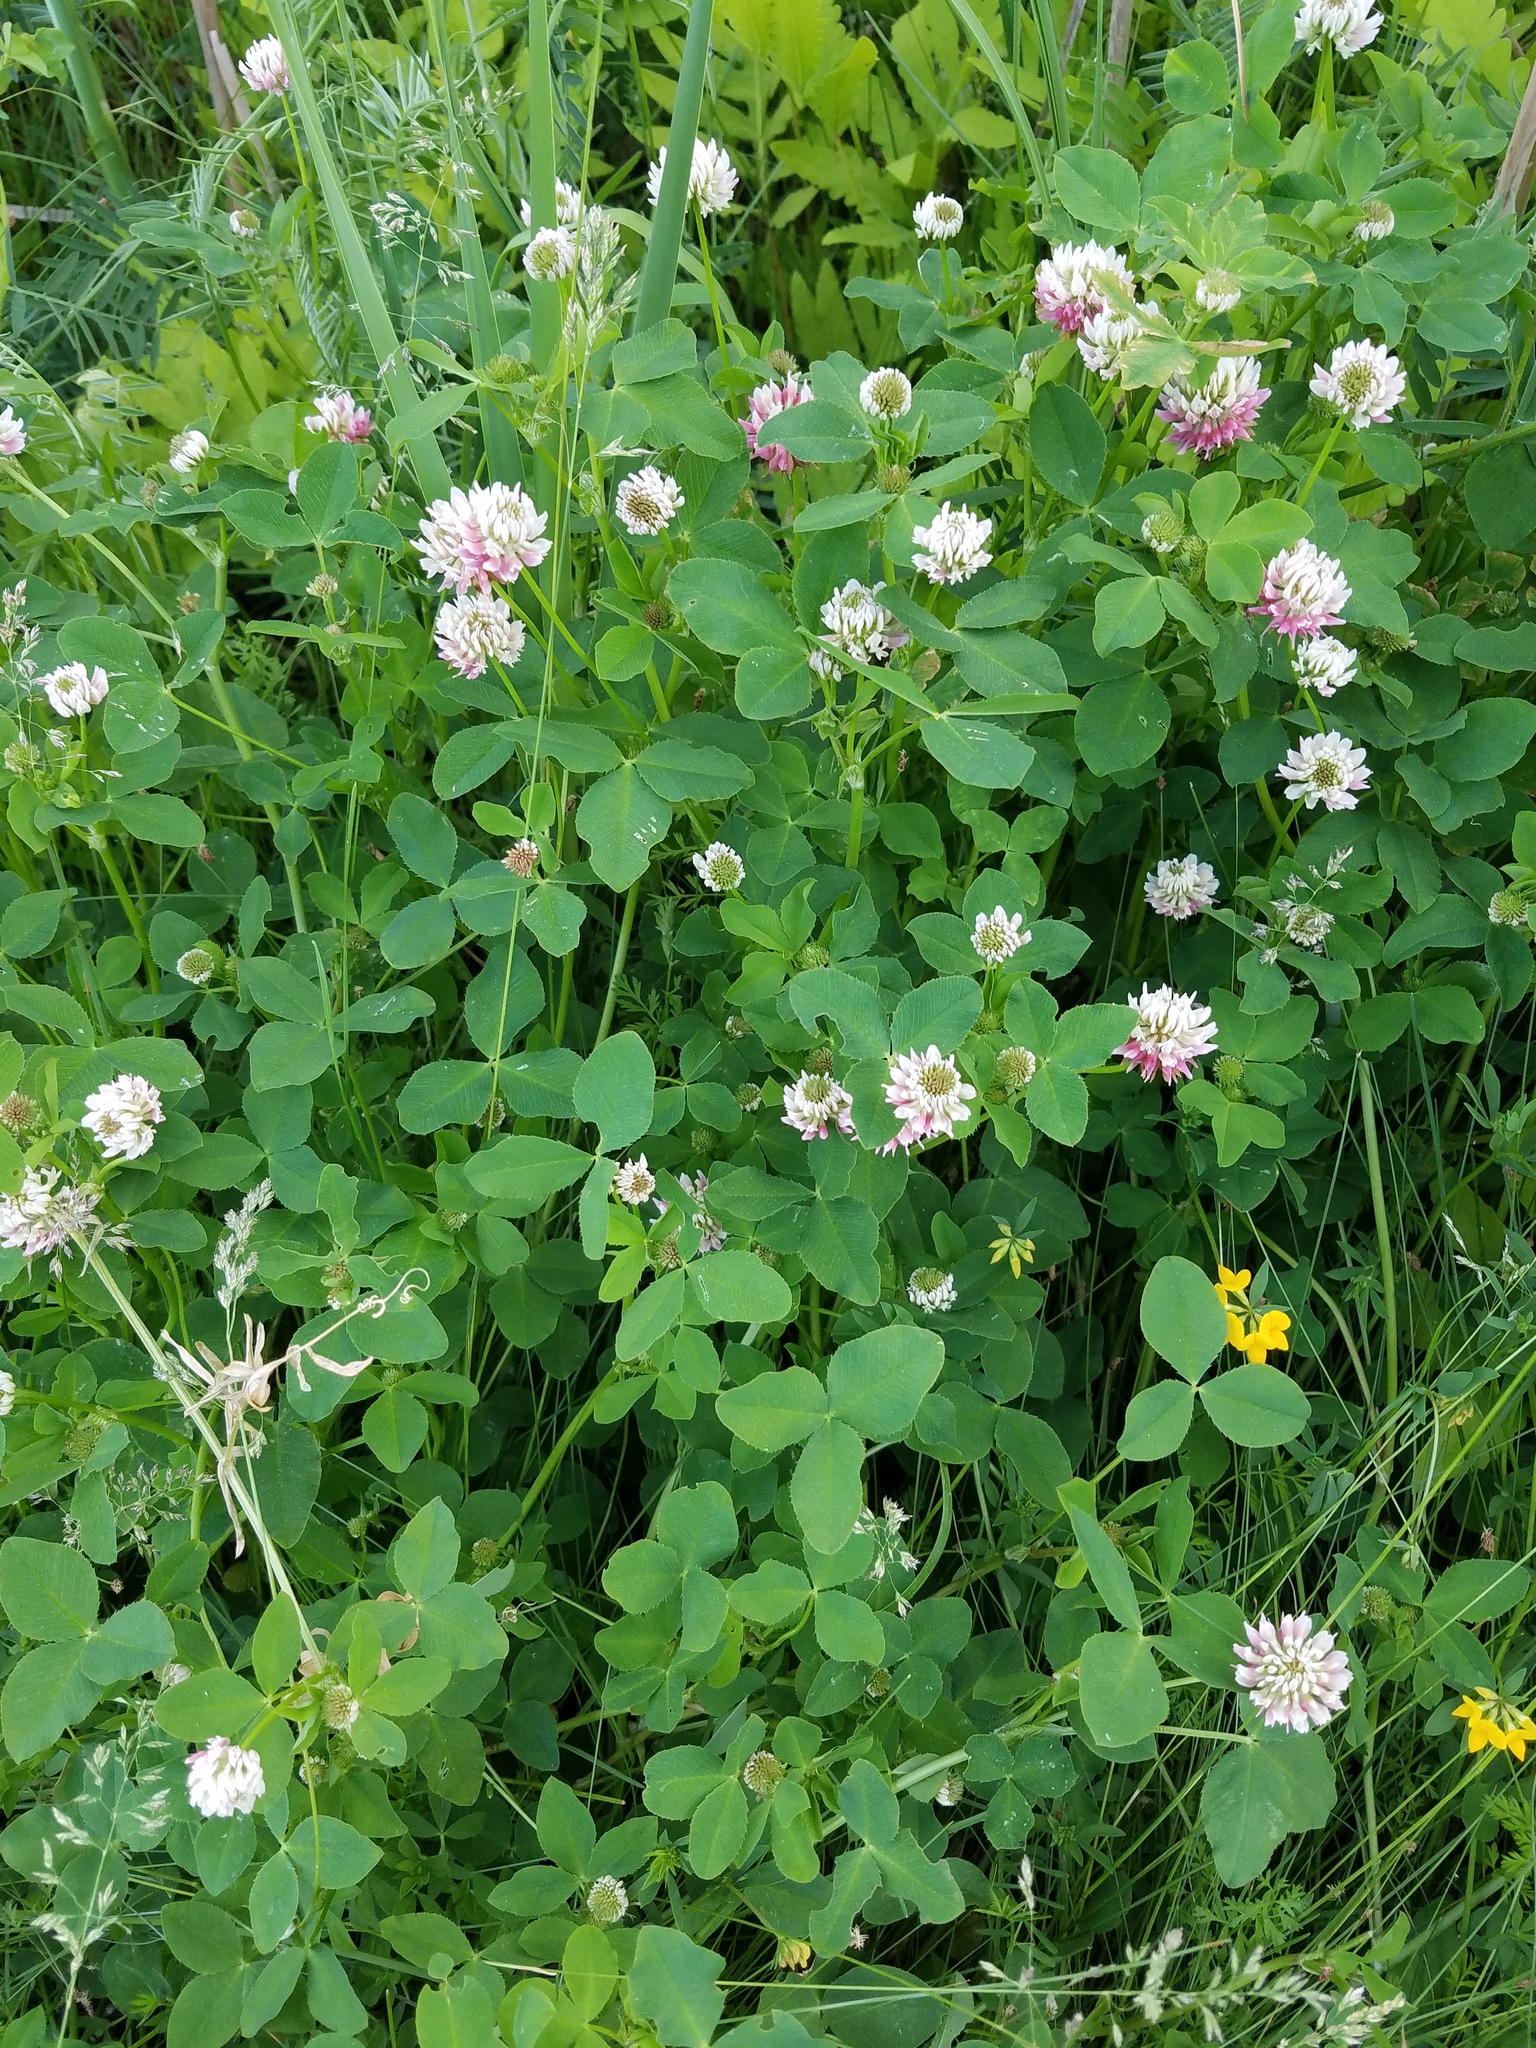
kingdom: Plantae
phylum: Tracheophyta
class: Magnoliopsida
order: Fabales
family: Fabaceae
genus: Trifolium
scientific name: Trifolium hybridum
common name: Alsike clover
